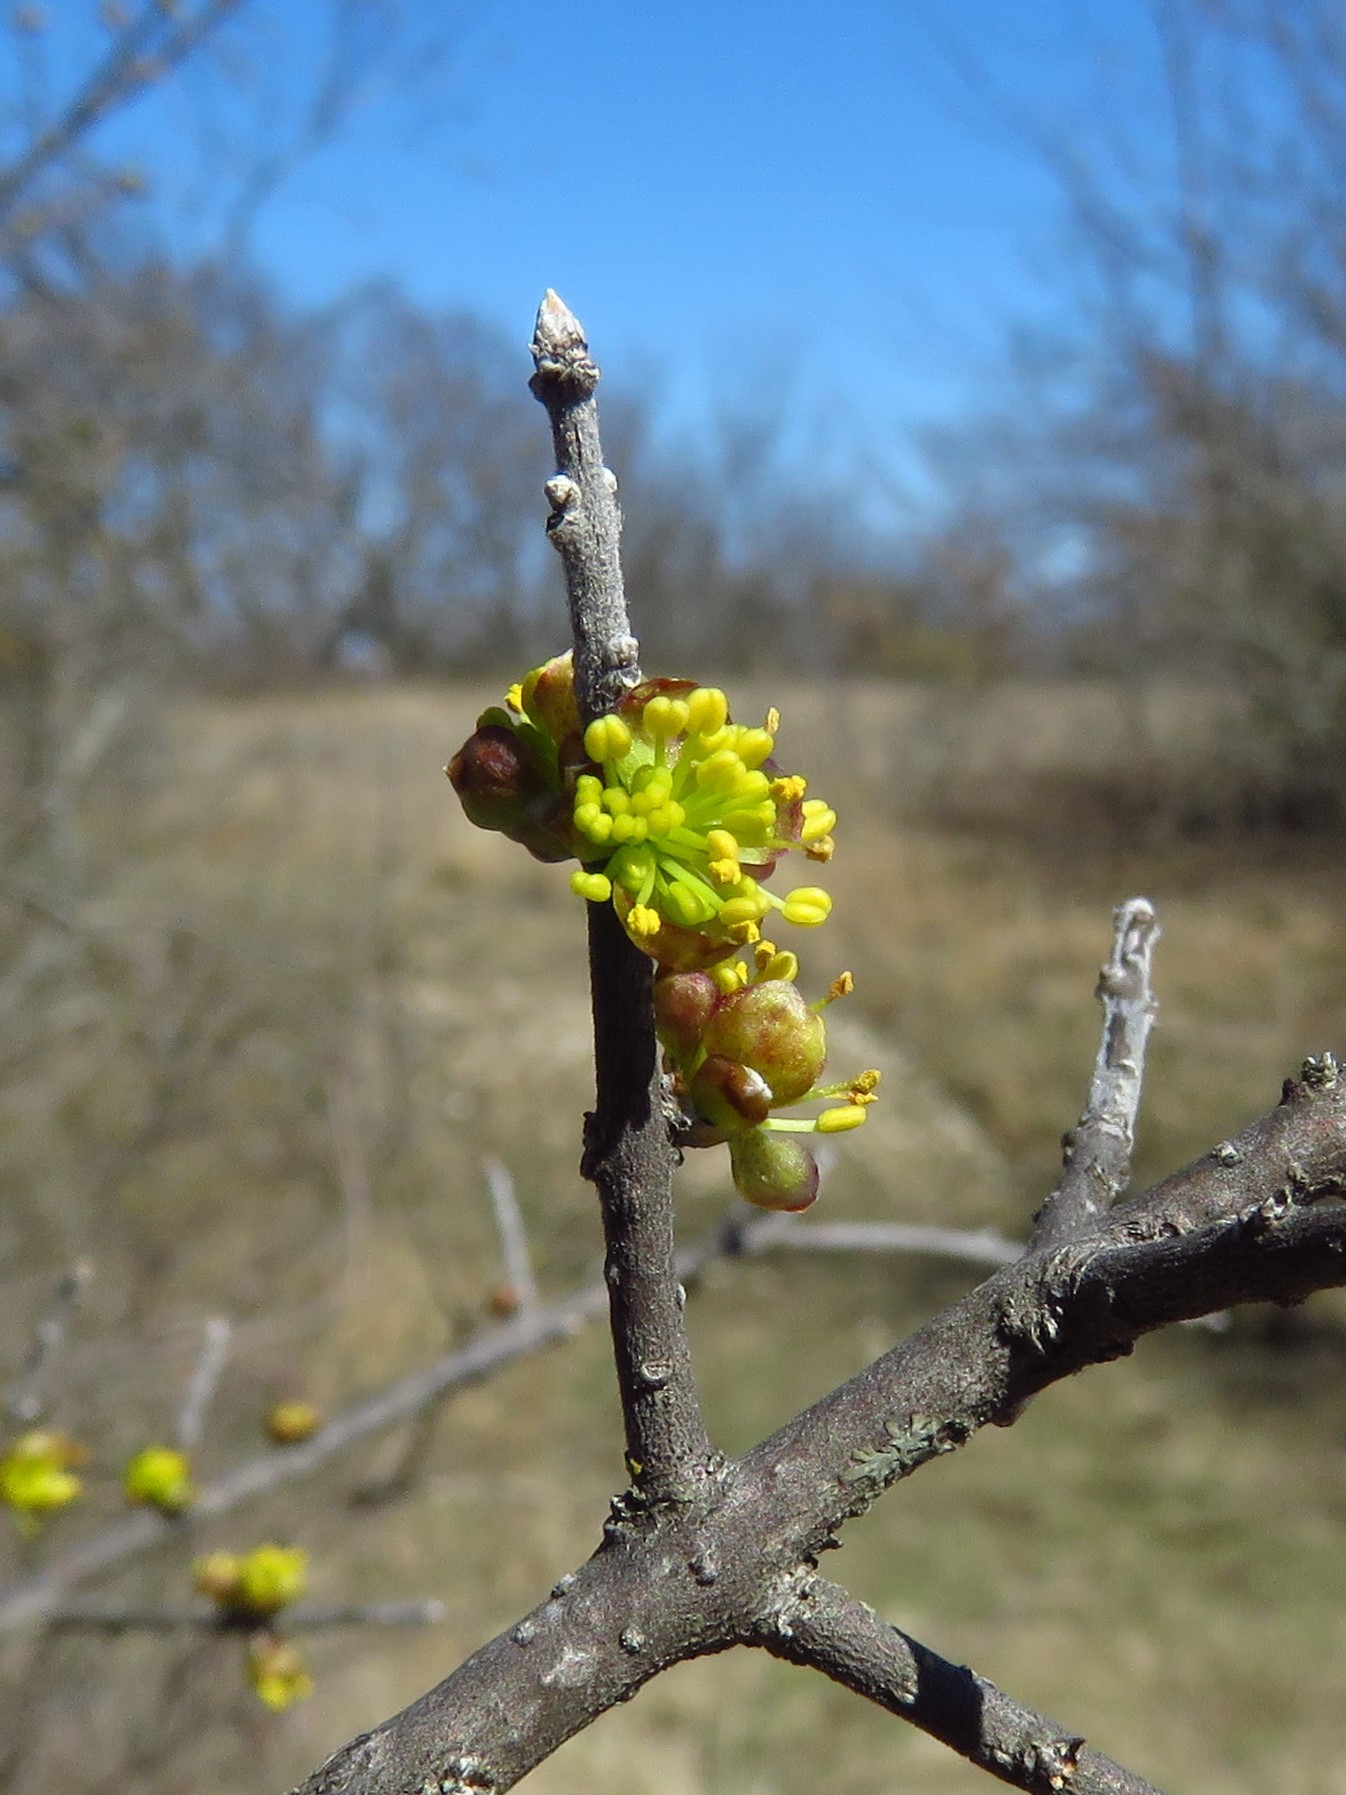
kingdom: Plantae
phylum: Tracheophyta
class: Magnoliopsida
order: Lamiales
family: Oleaceae
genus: Forestiera
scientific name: Forestiera pubescens
